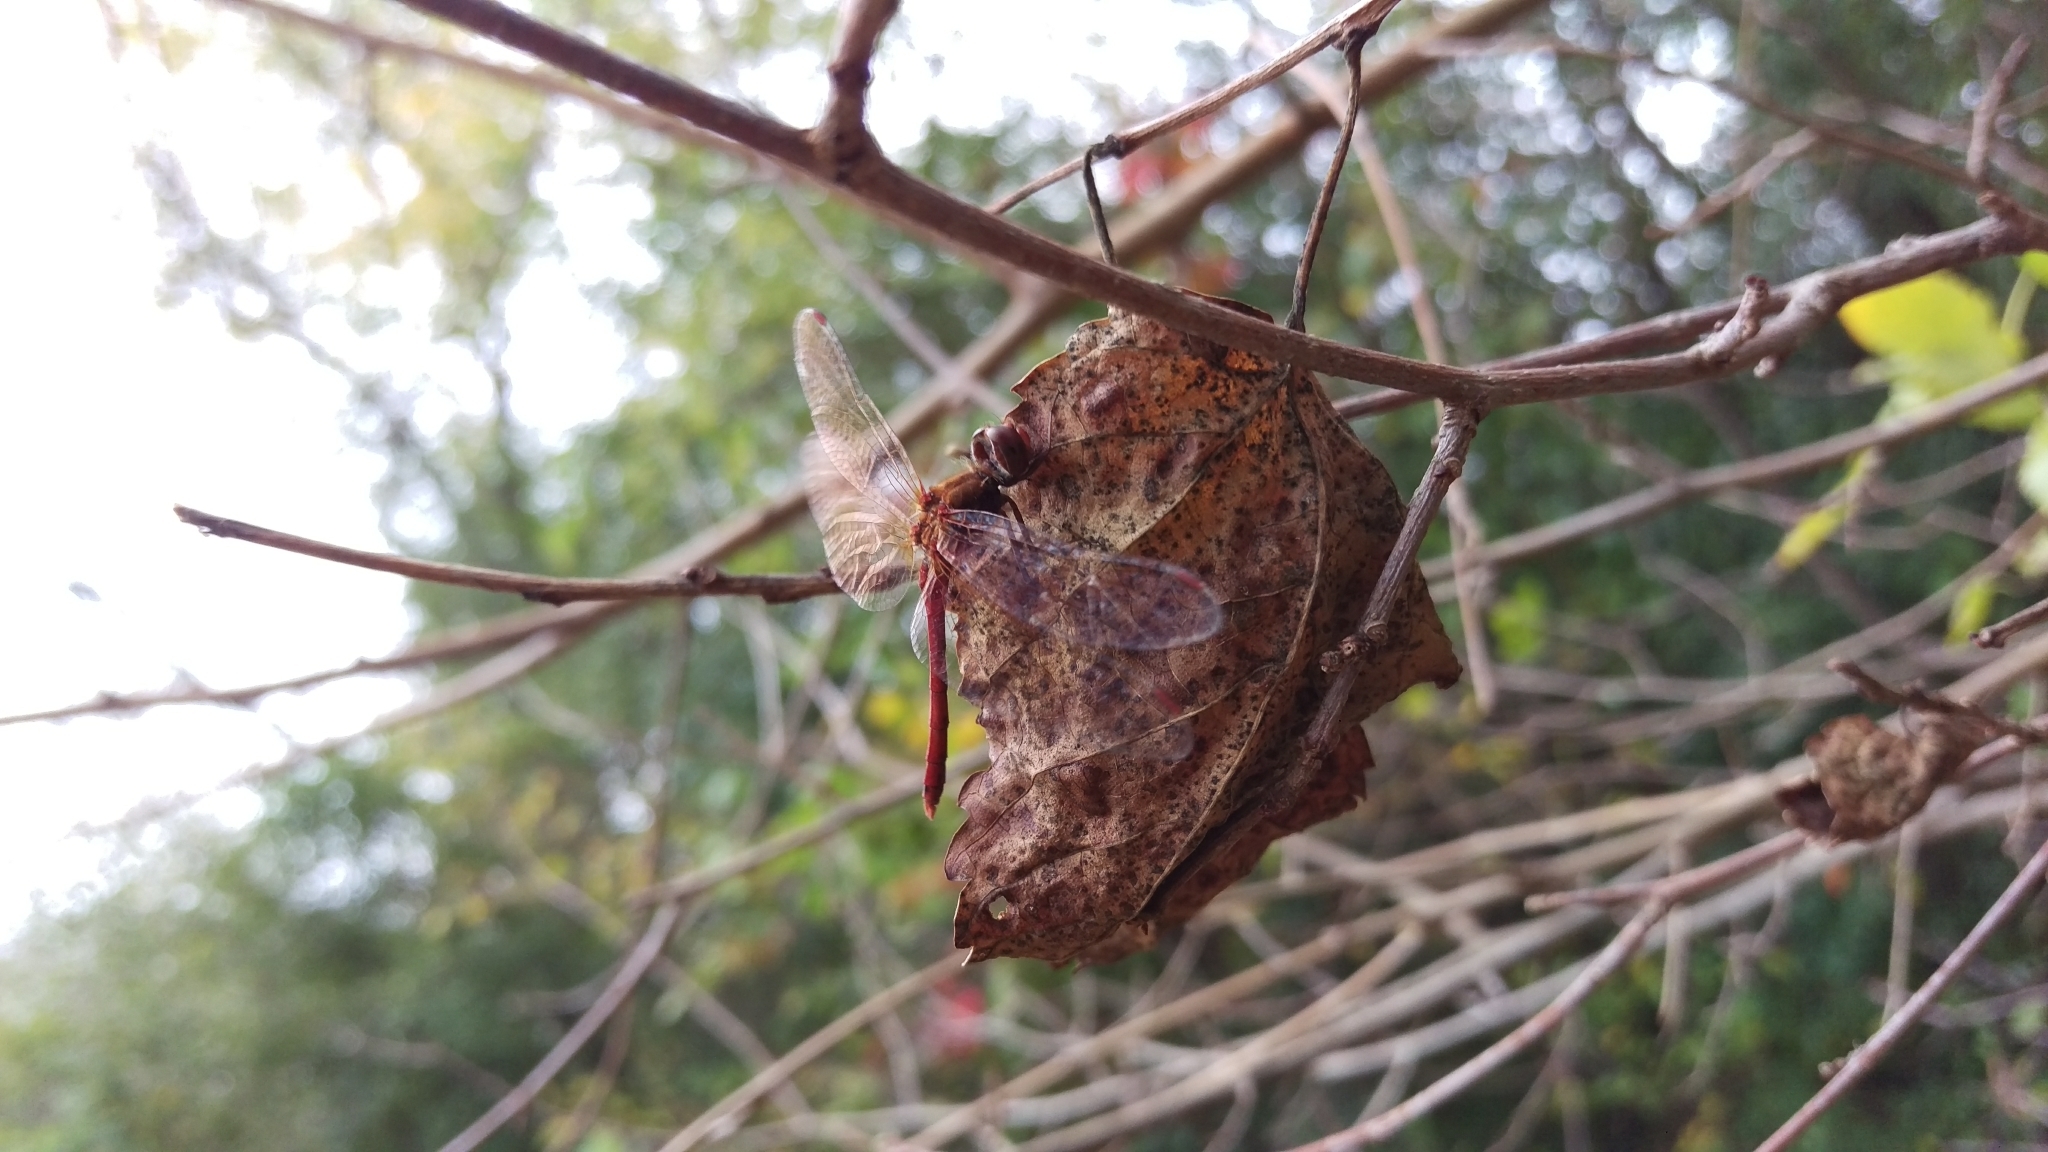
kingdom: Animalia
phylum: Arthropoda
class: Insecta
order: Odonata
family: Libellulidae
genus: Sympetrum
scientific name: Sympetrum vicinum
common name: Autumn meadowhawk
